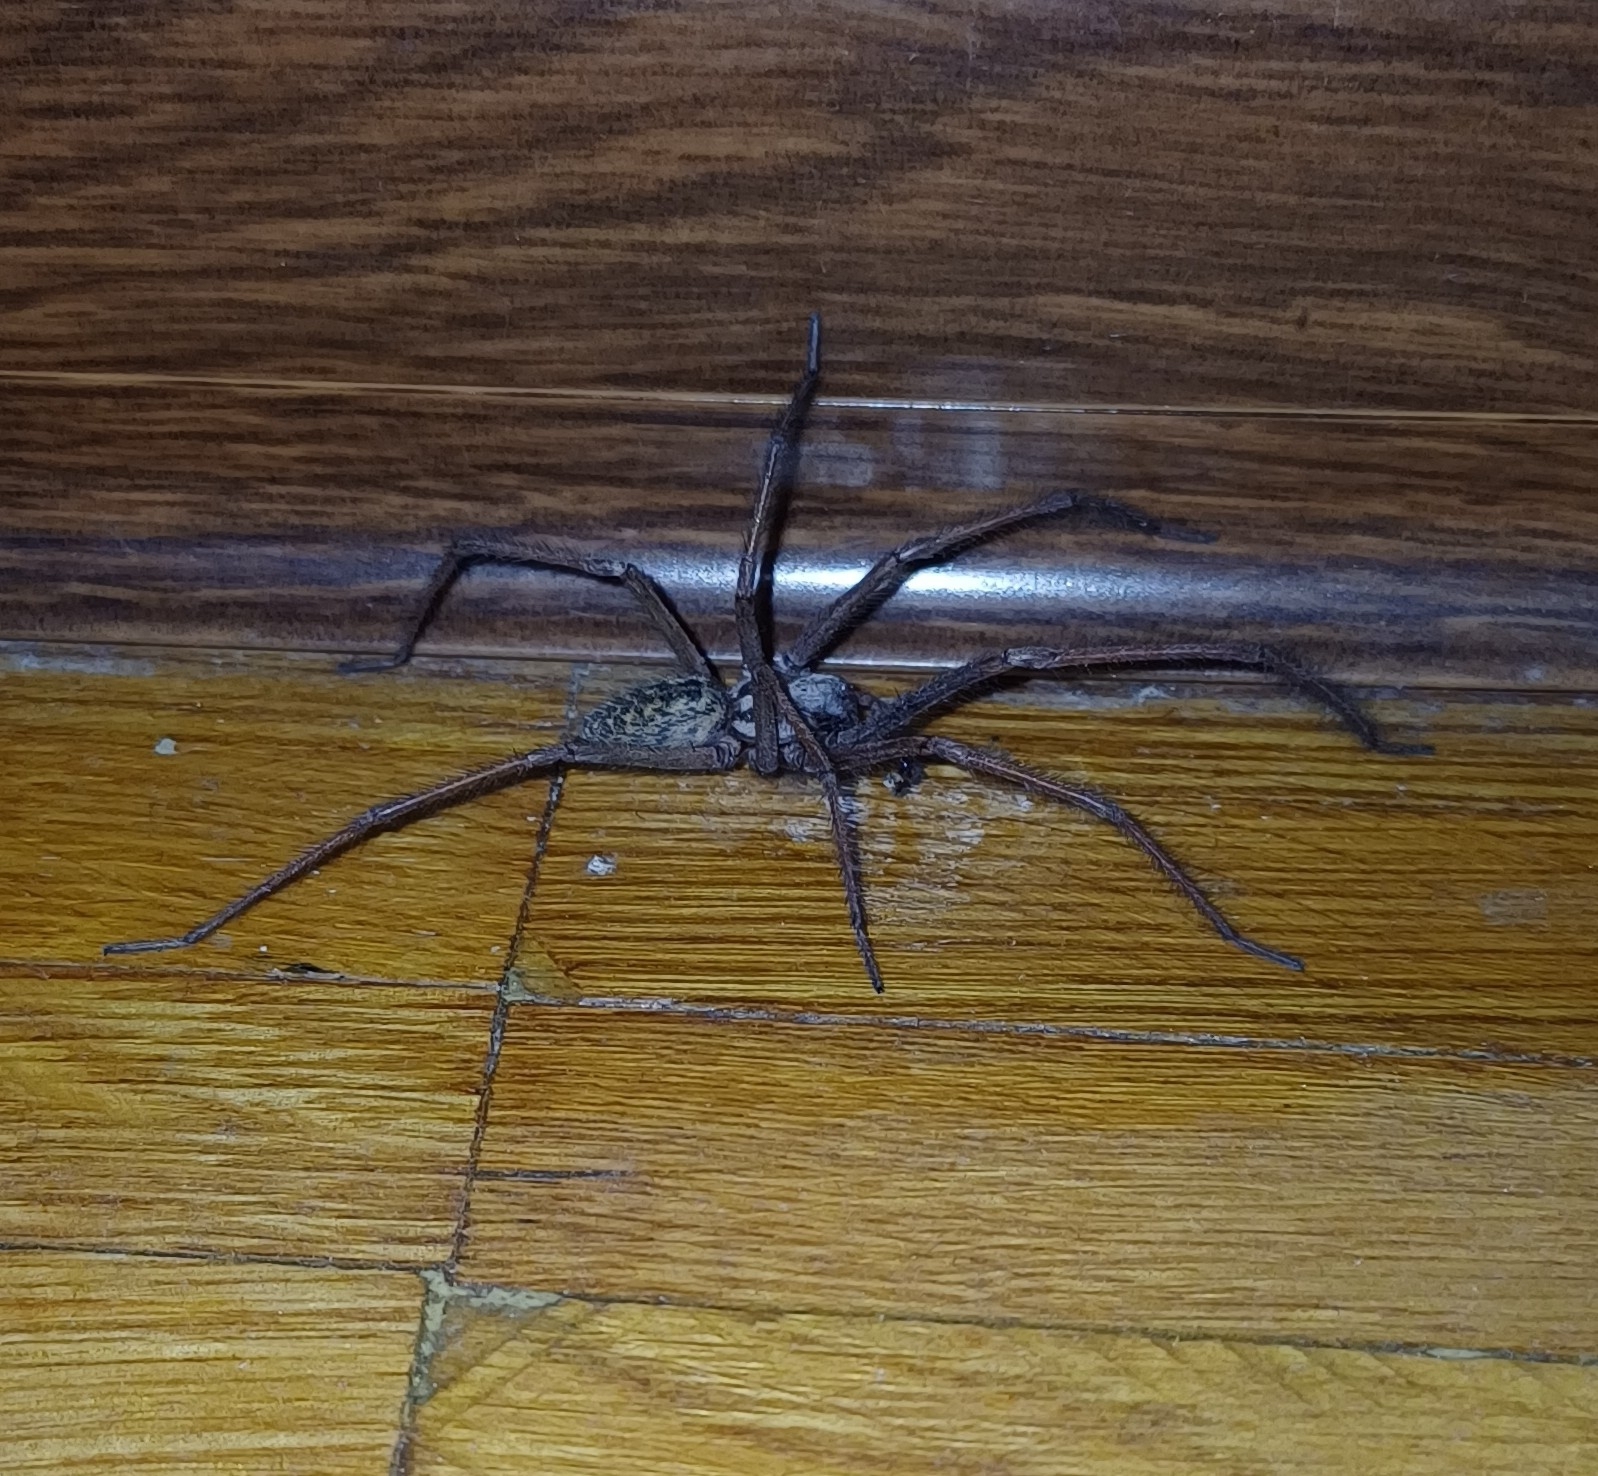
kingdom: Animalia
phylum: Arthropoda
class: Arachnida
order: Araneae
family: Agelenidae
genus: Eratigena
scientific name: Eratigena atrica
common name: Giant house spider
